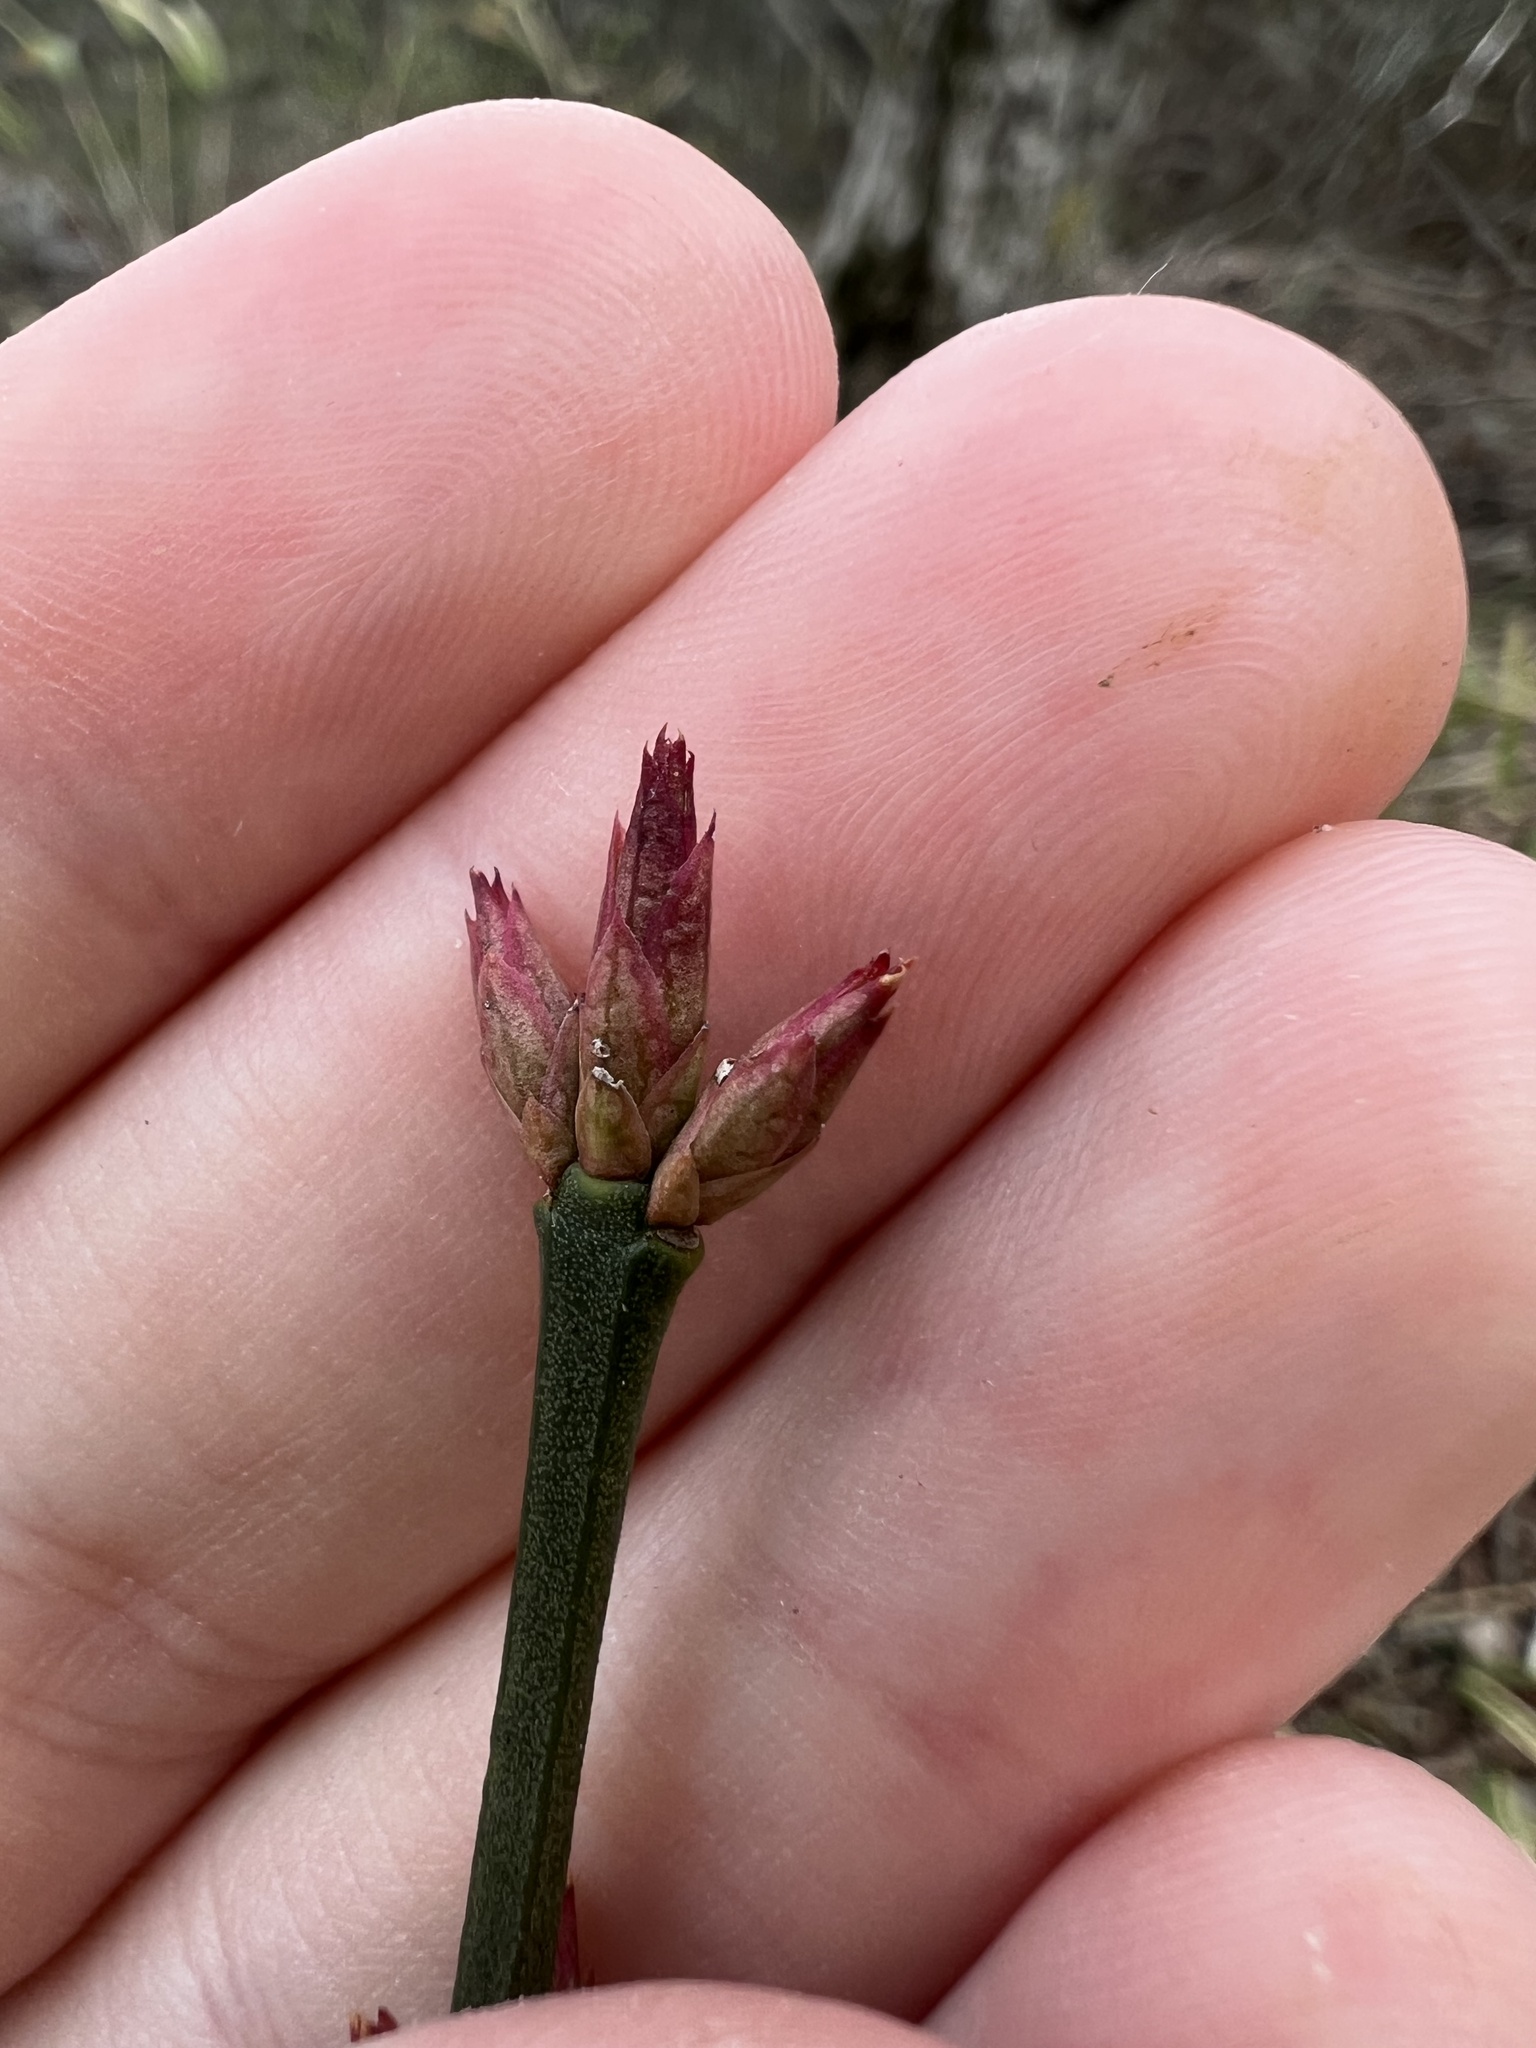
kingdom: Plantae
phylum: Tracheophyta
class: Magnoliopsida
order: Celastrales
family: Celastraceae
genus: Euonymus
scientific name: Euonymus americanus
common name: Bursting-heart
